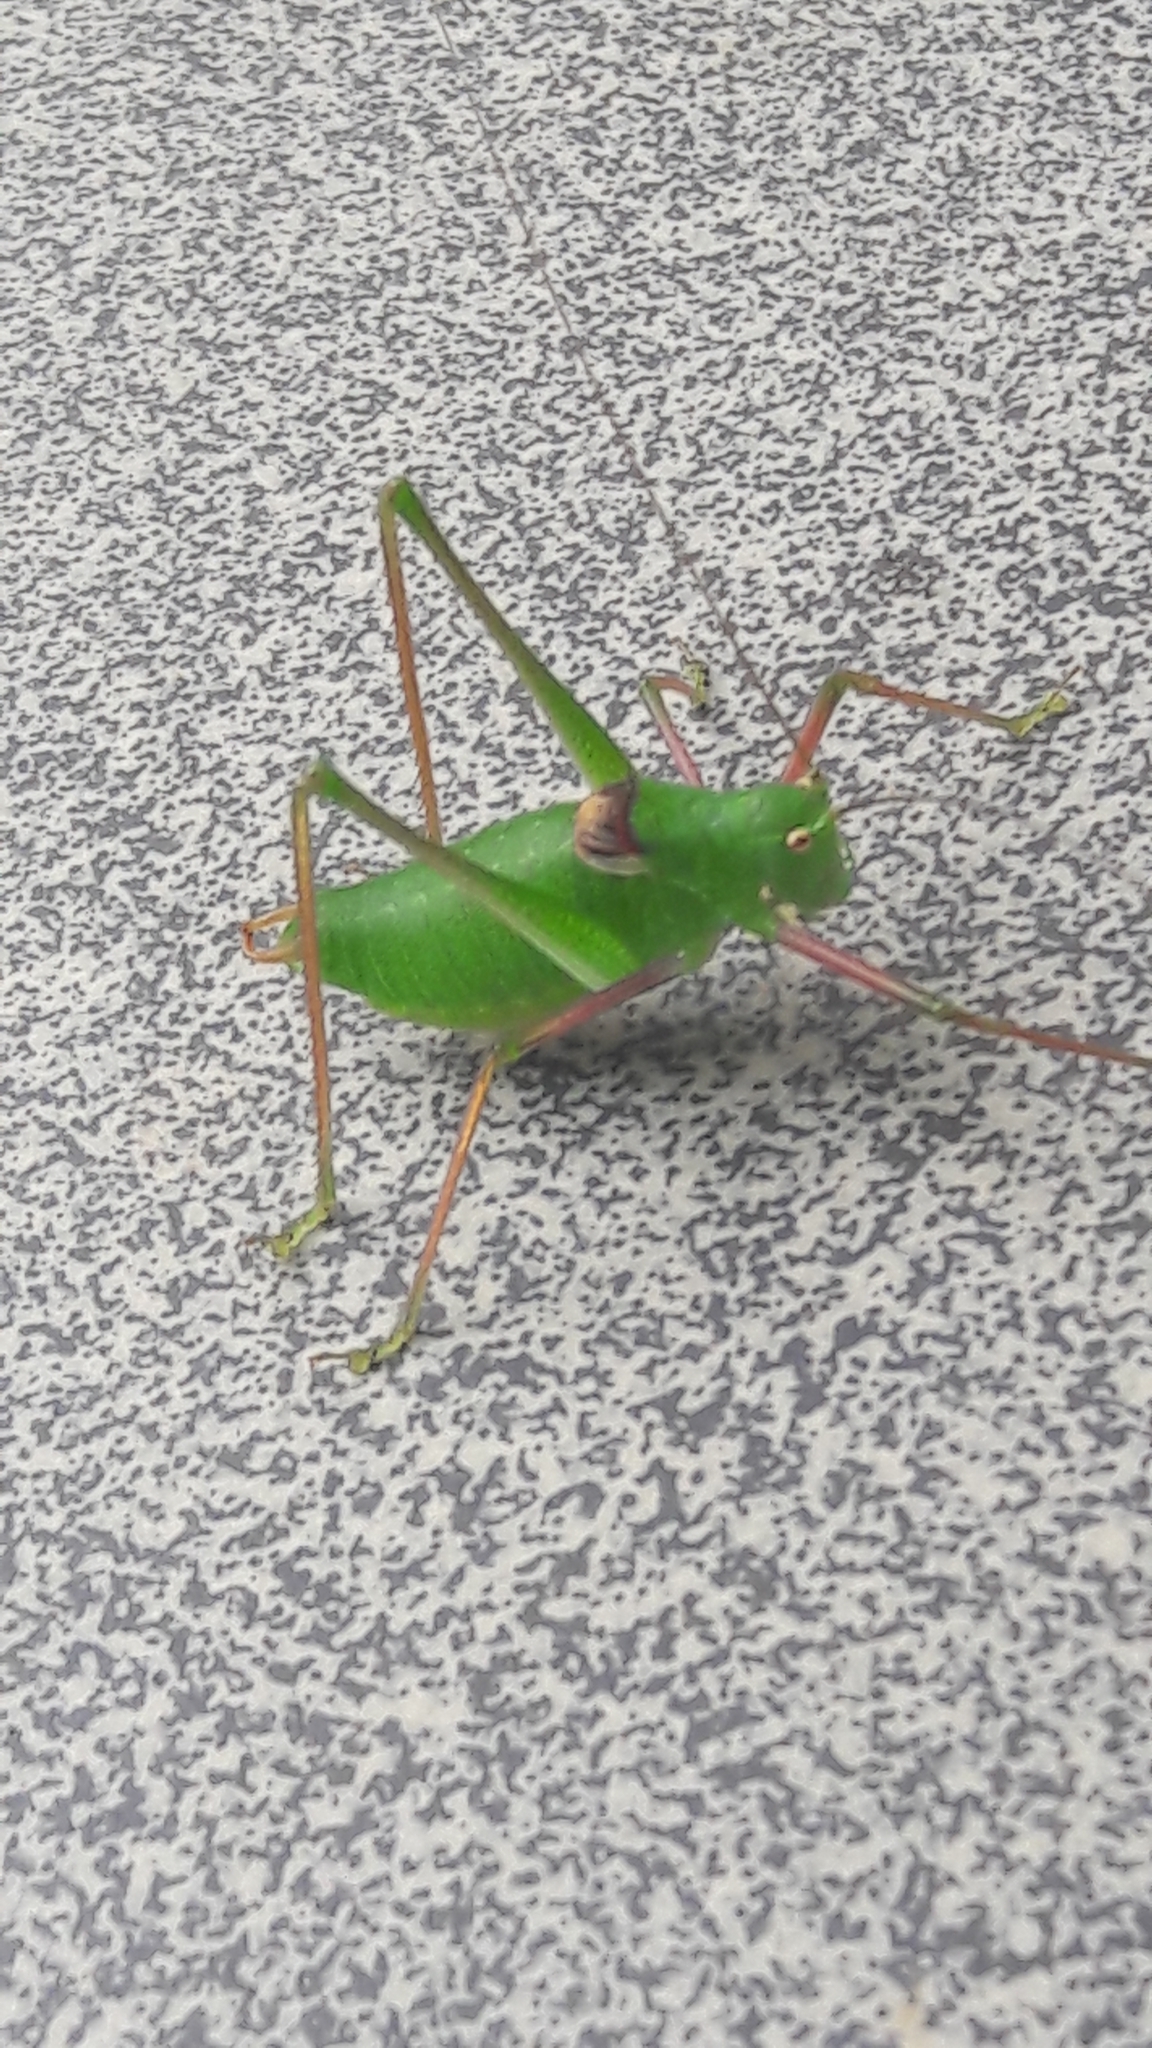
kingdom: Animalia
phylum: Arthropoda
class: Insecta
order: Orthoptera
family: Tettigoniidae
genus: Poecilimon
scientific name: Poecilimon schmidtii
